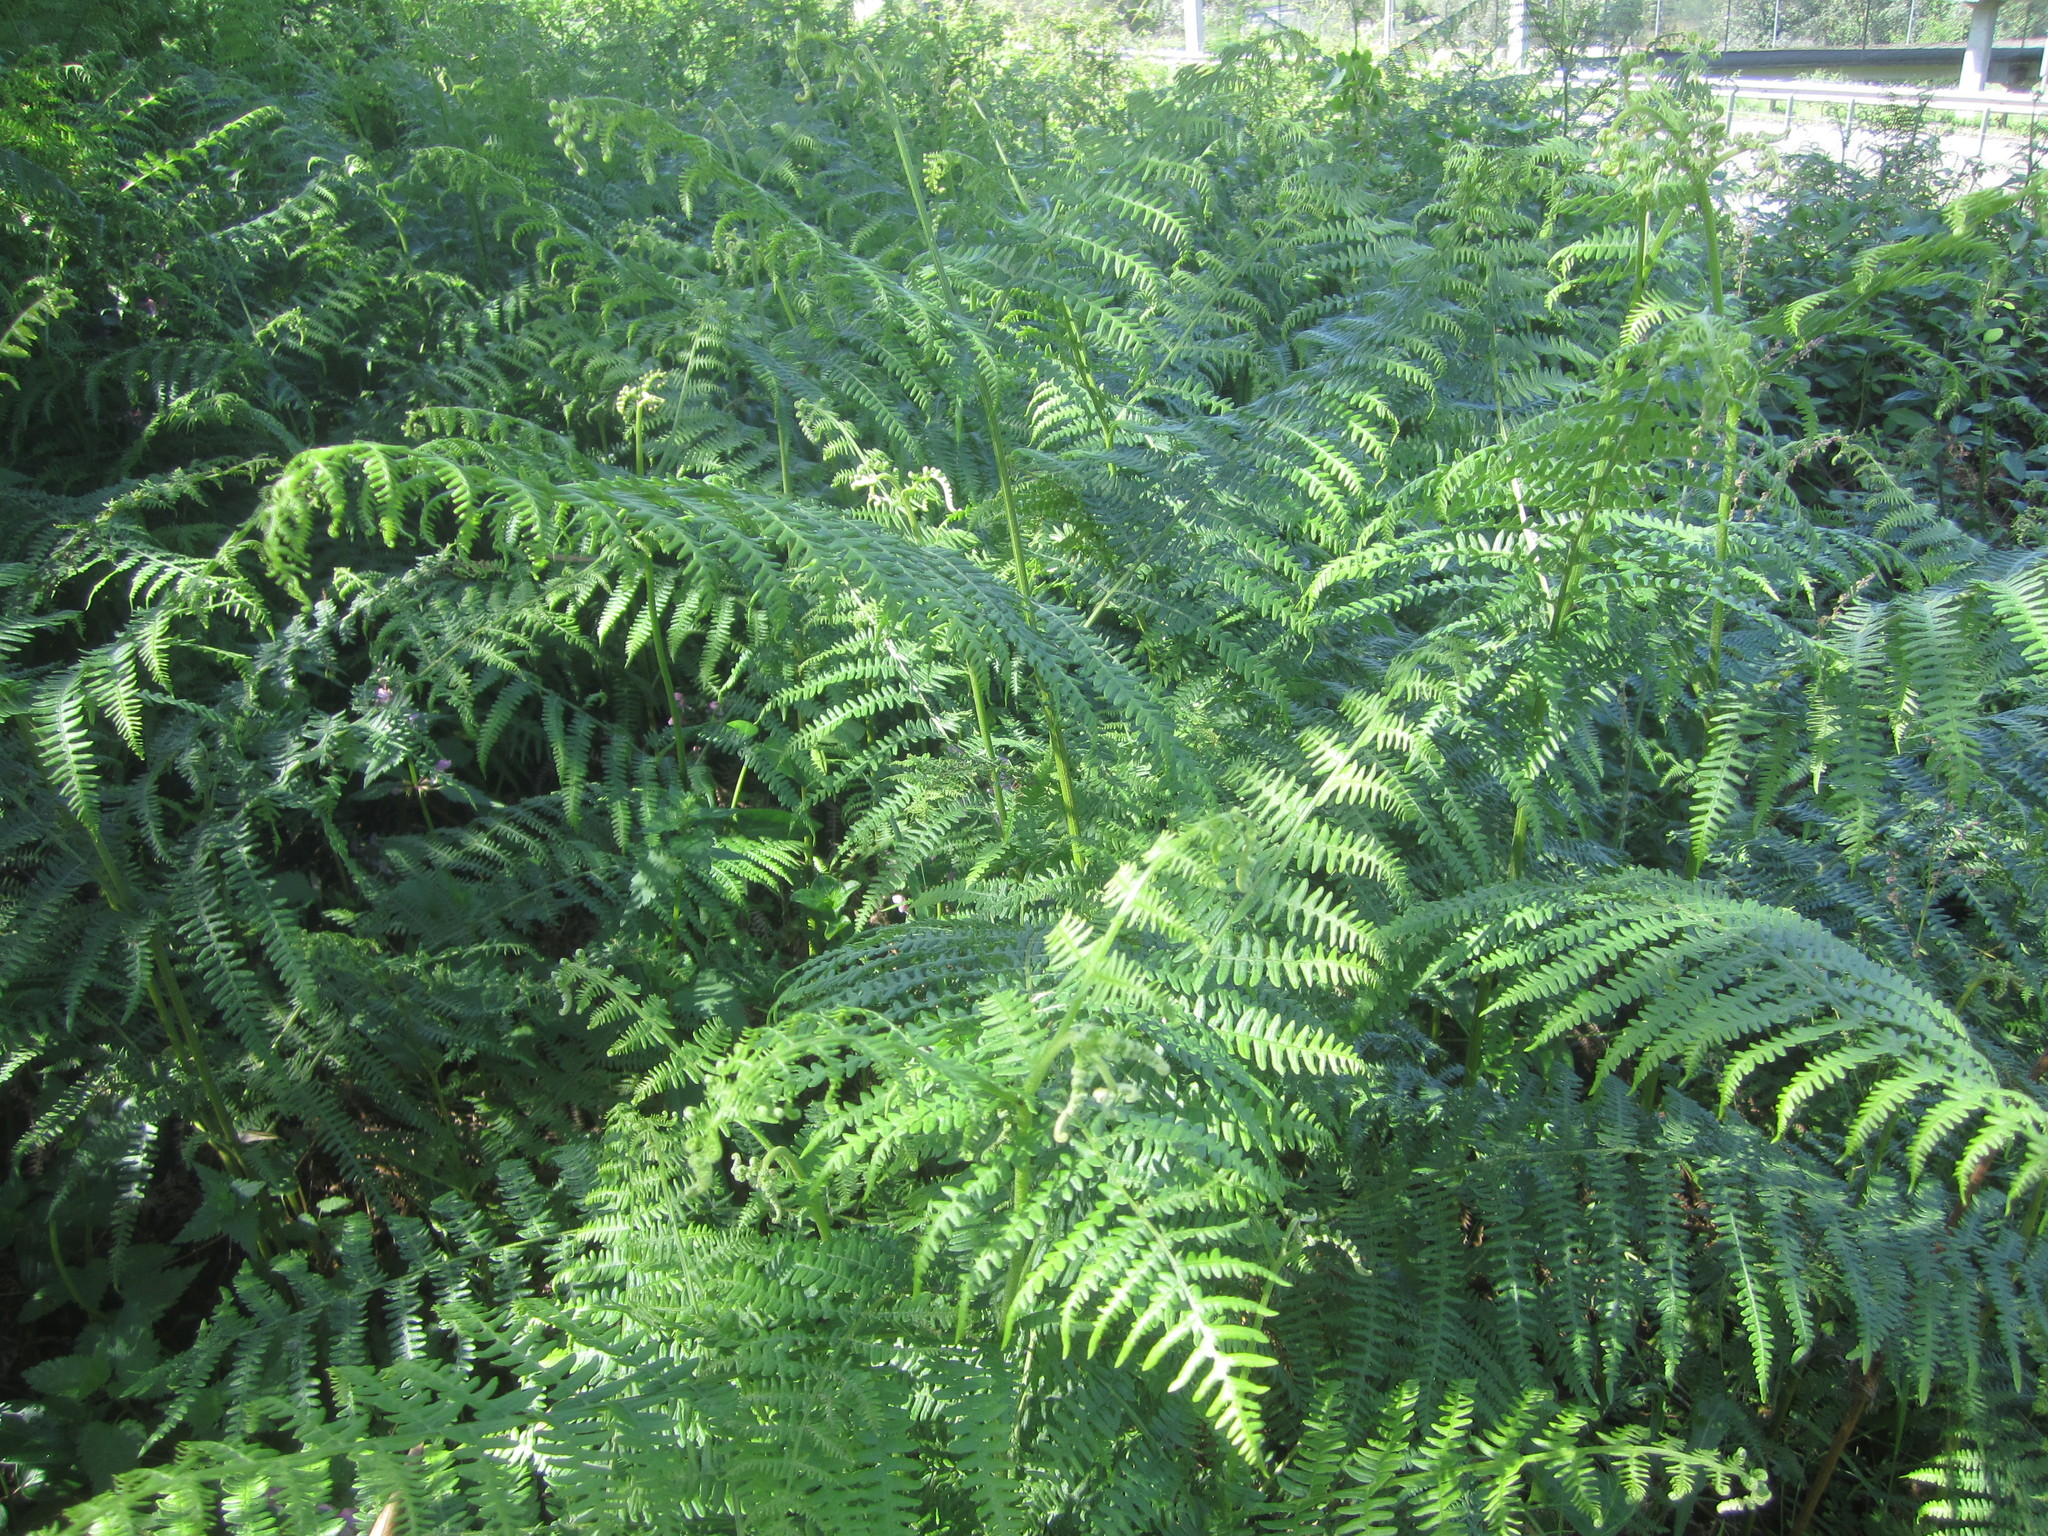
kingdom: Plantae
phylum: Tracheophyta
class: Polypodiopsida
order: Polypodiales
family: Dennstaedtiaceae
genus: Pteridium
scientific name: Pteridium aquilinum
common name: Bracken
